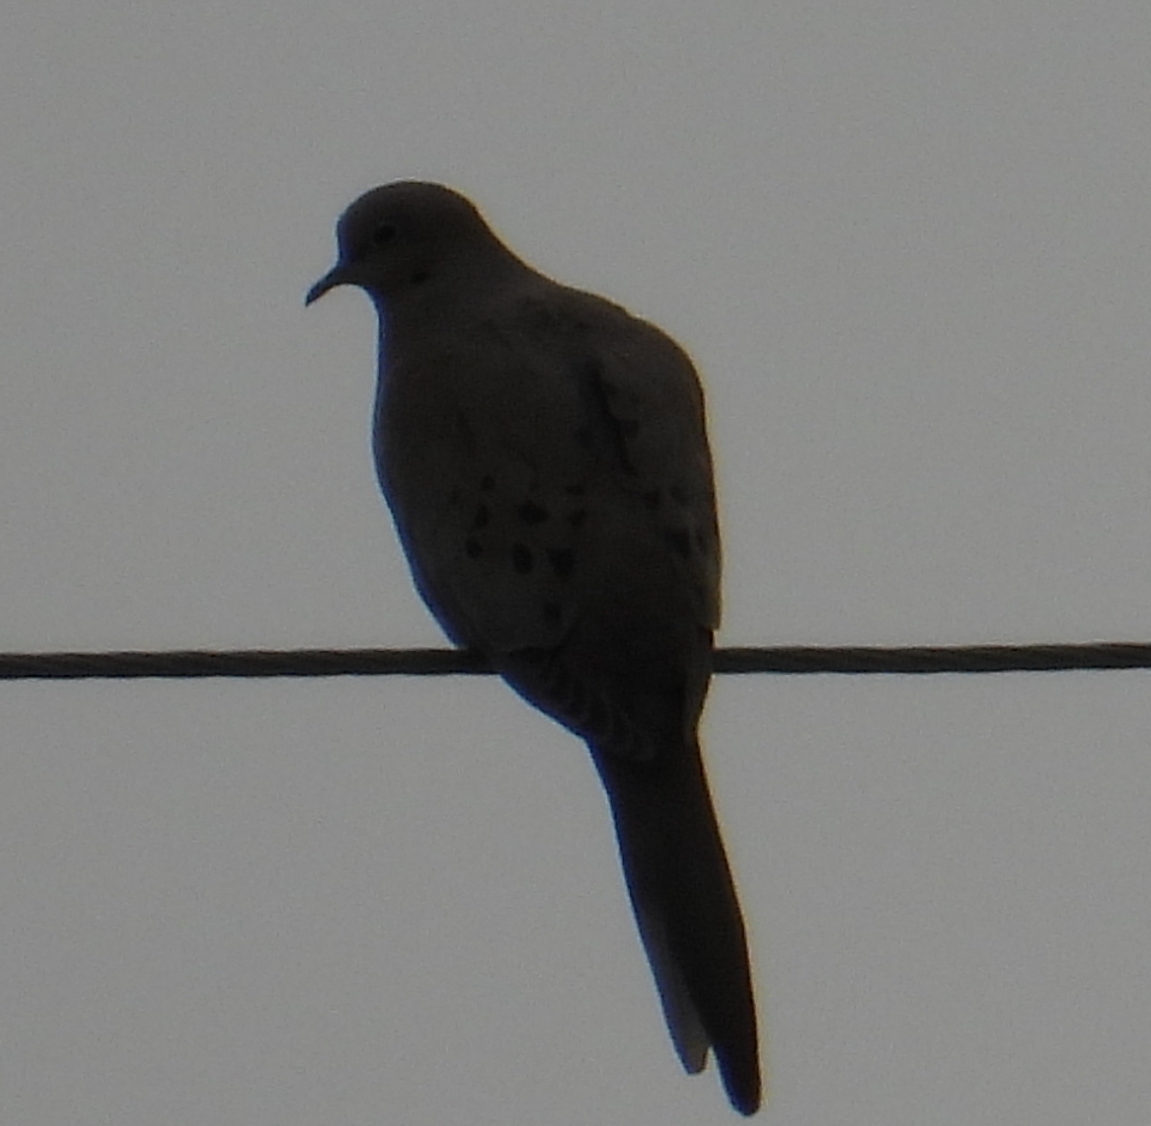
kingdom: Animalia
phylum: Chordata
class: Aves
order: Columbiformes
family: Columbidae
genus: Zenaida
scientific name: Zenaida macroura
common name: Mourning dove
